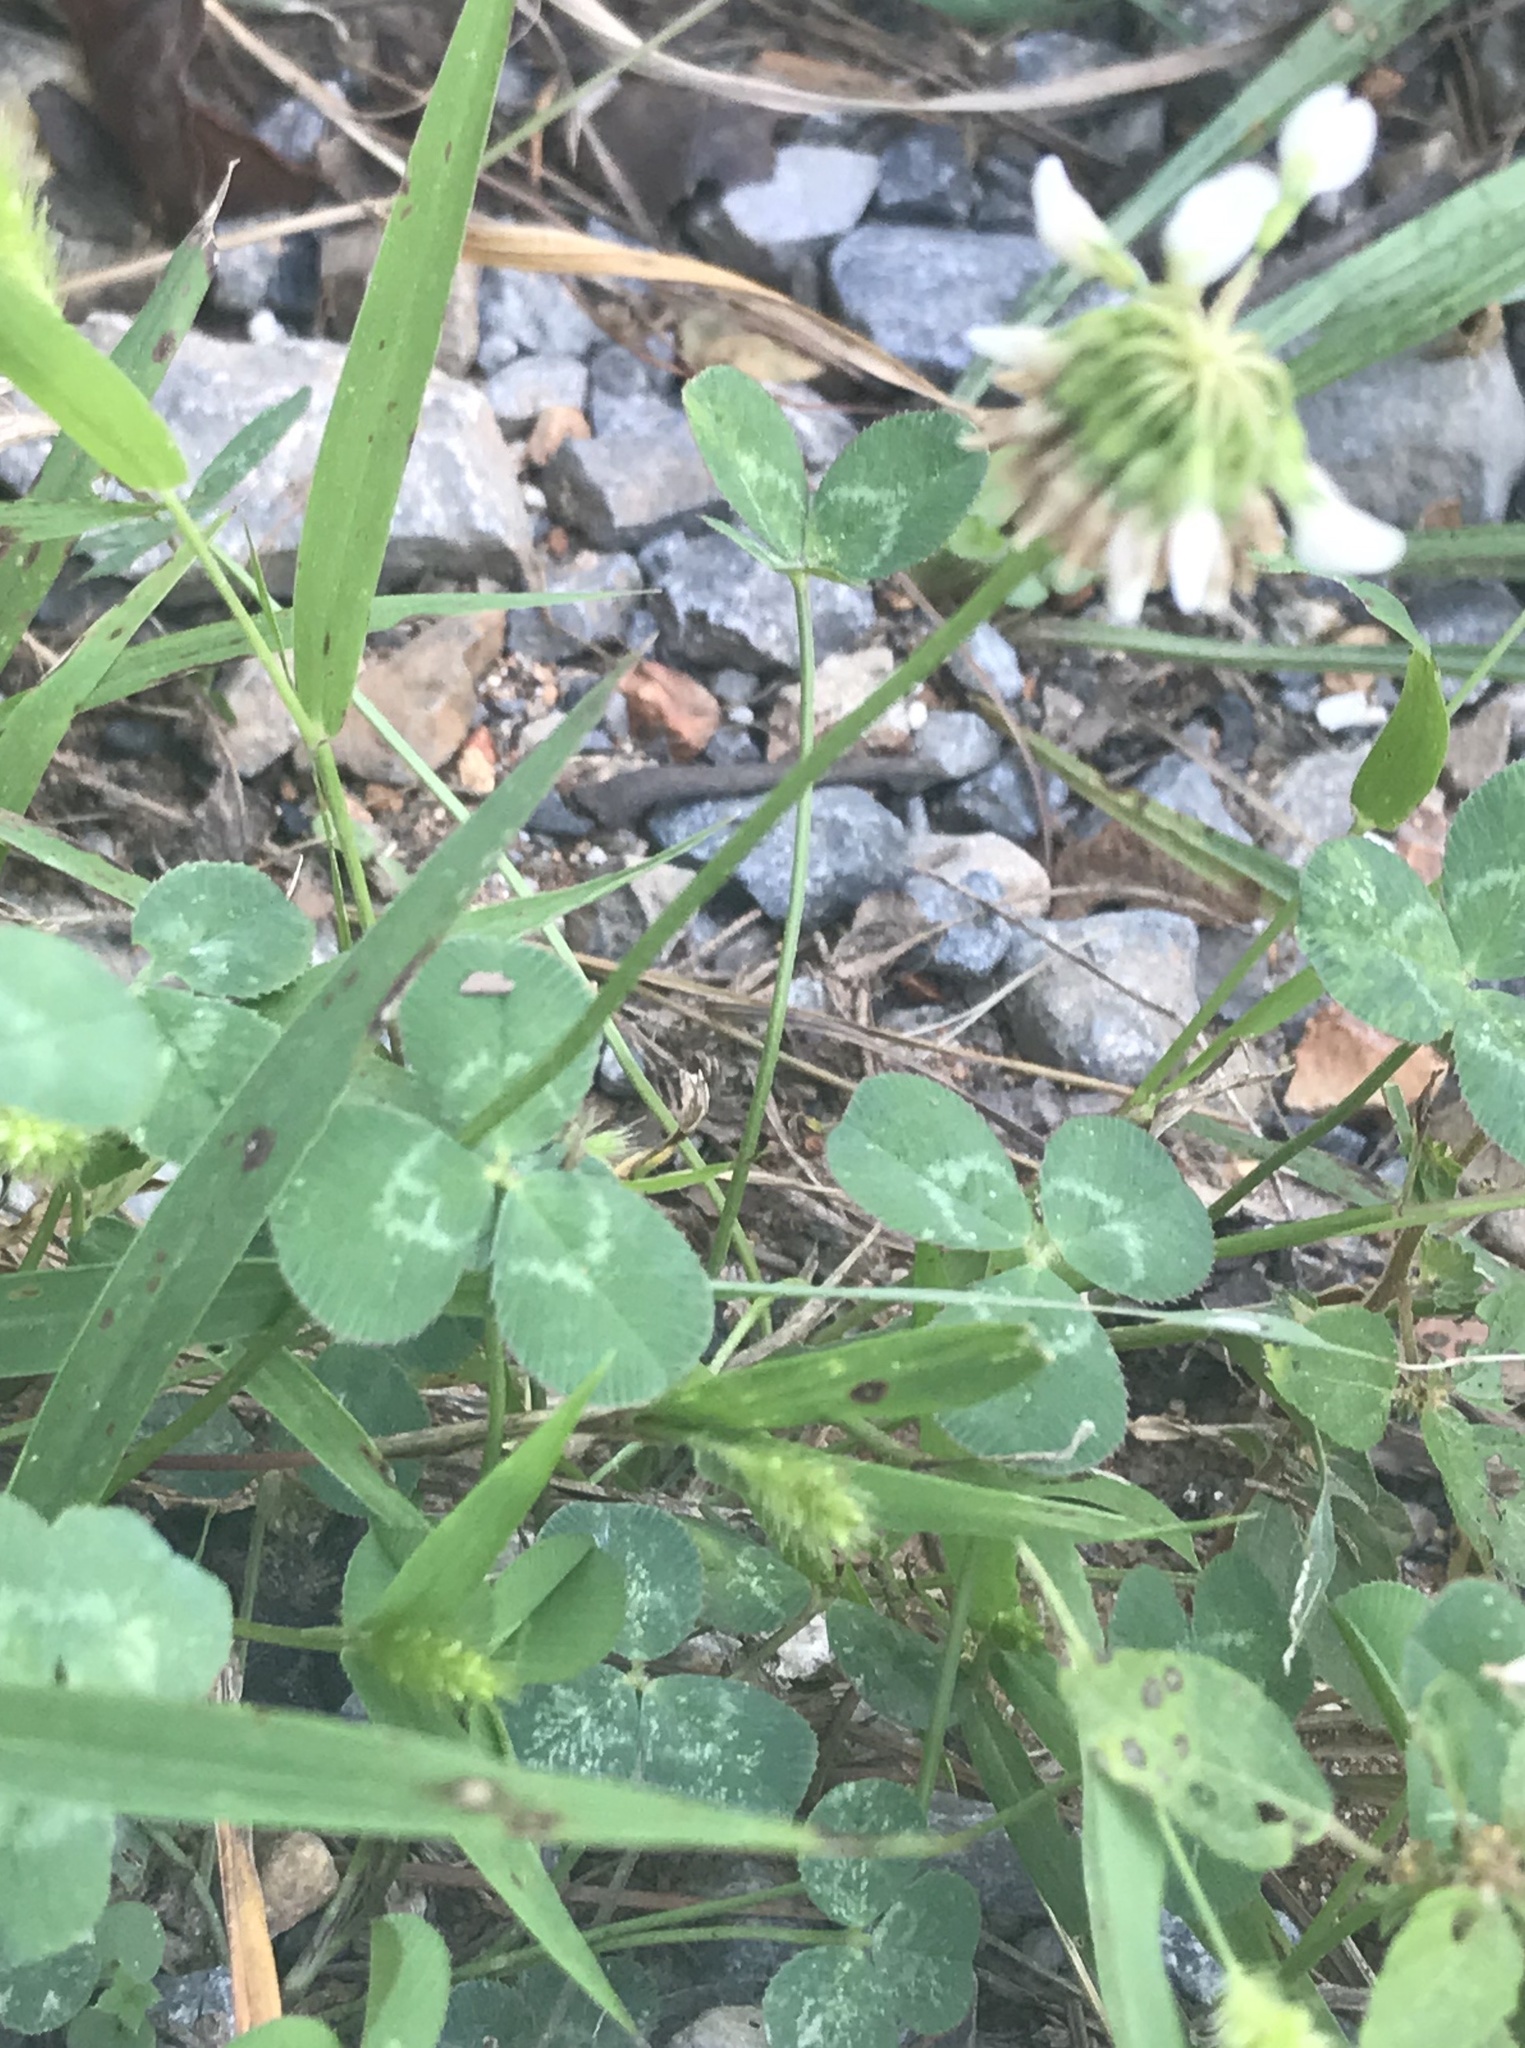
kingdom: Plantae
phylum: Tracheophyta
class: Magnoliopsida
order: Fabales
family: Fabaceae
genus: Trifolium
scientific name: Trifolium repens
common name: White clover
